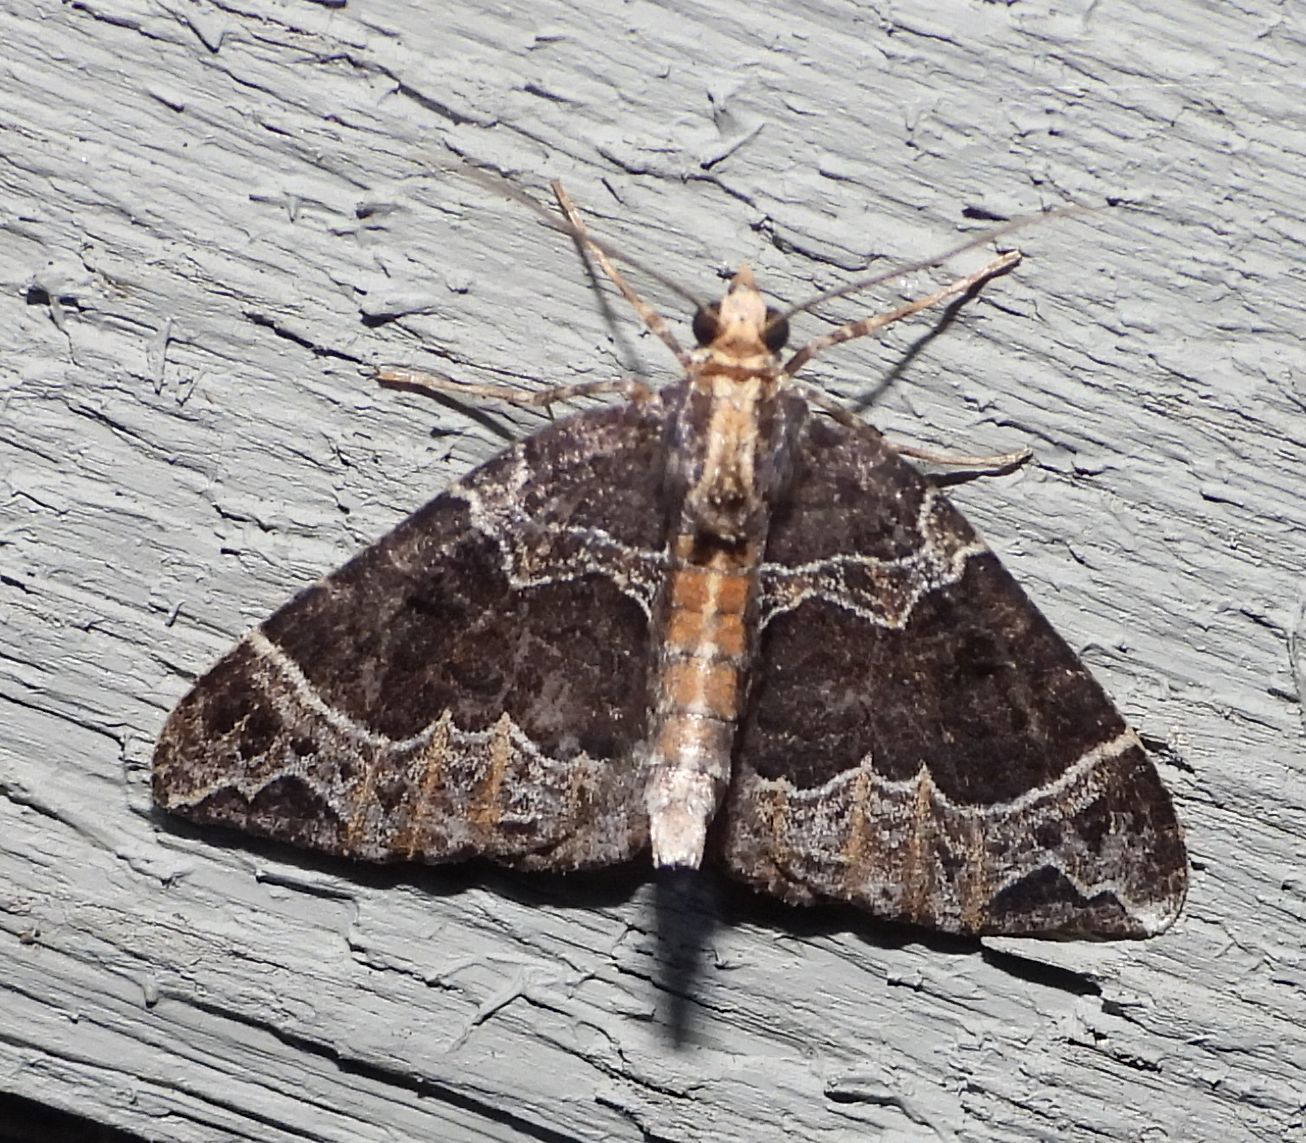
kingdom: Animalia
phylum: Arthropoda
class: Insecta
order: Lepidoptera
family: Geometridae
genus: Ecliptopera
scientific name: Ecliptopera silaceata
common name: Small phoenix
